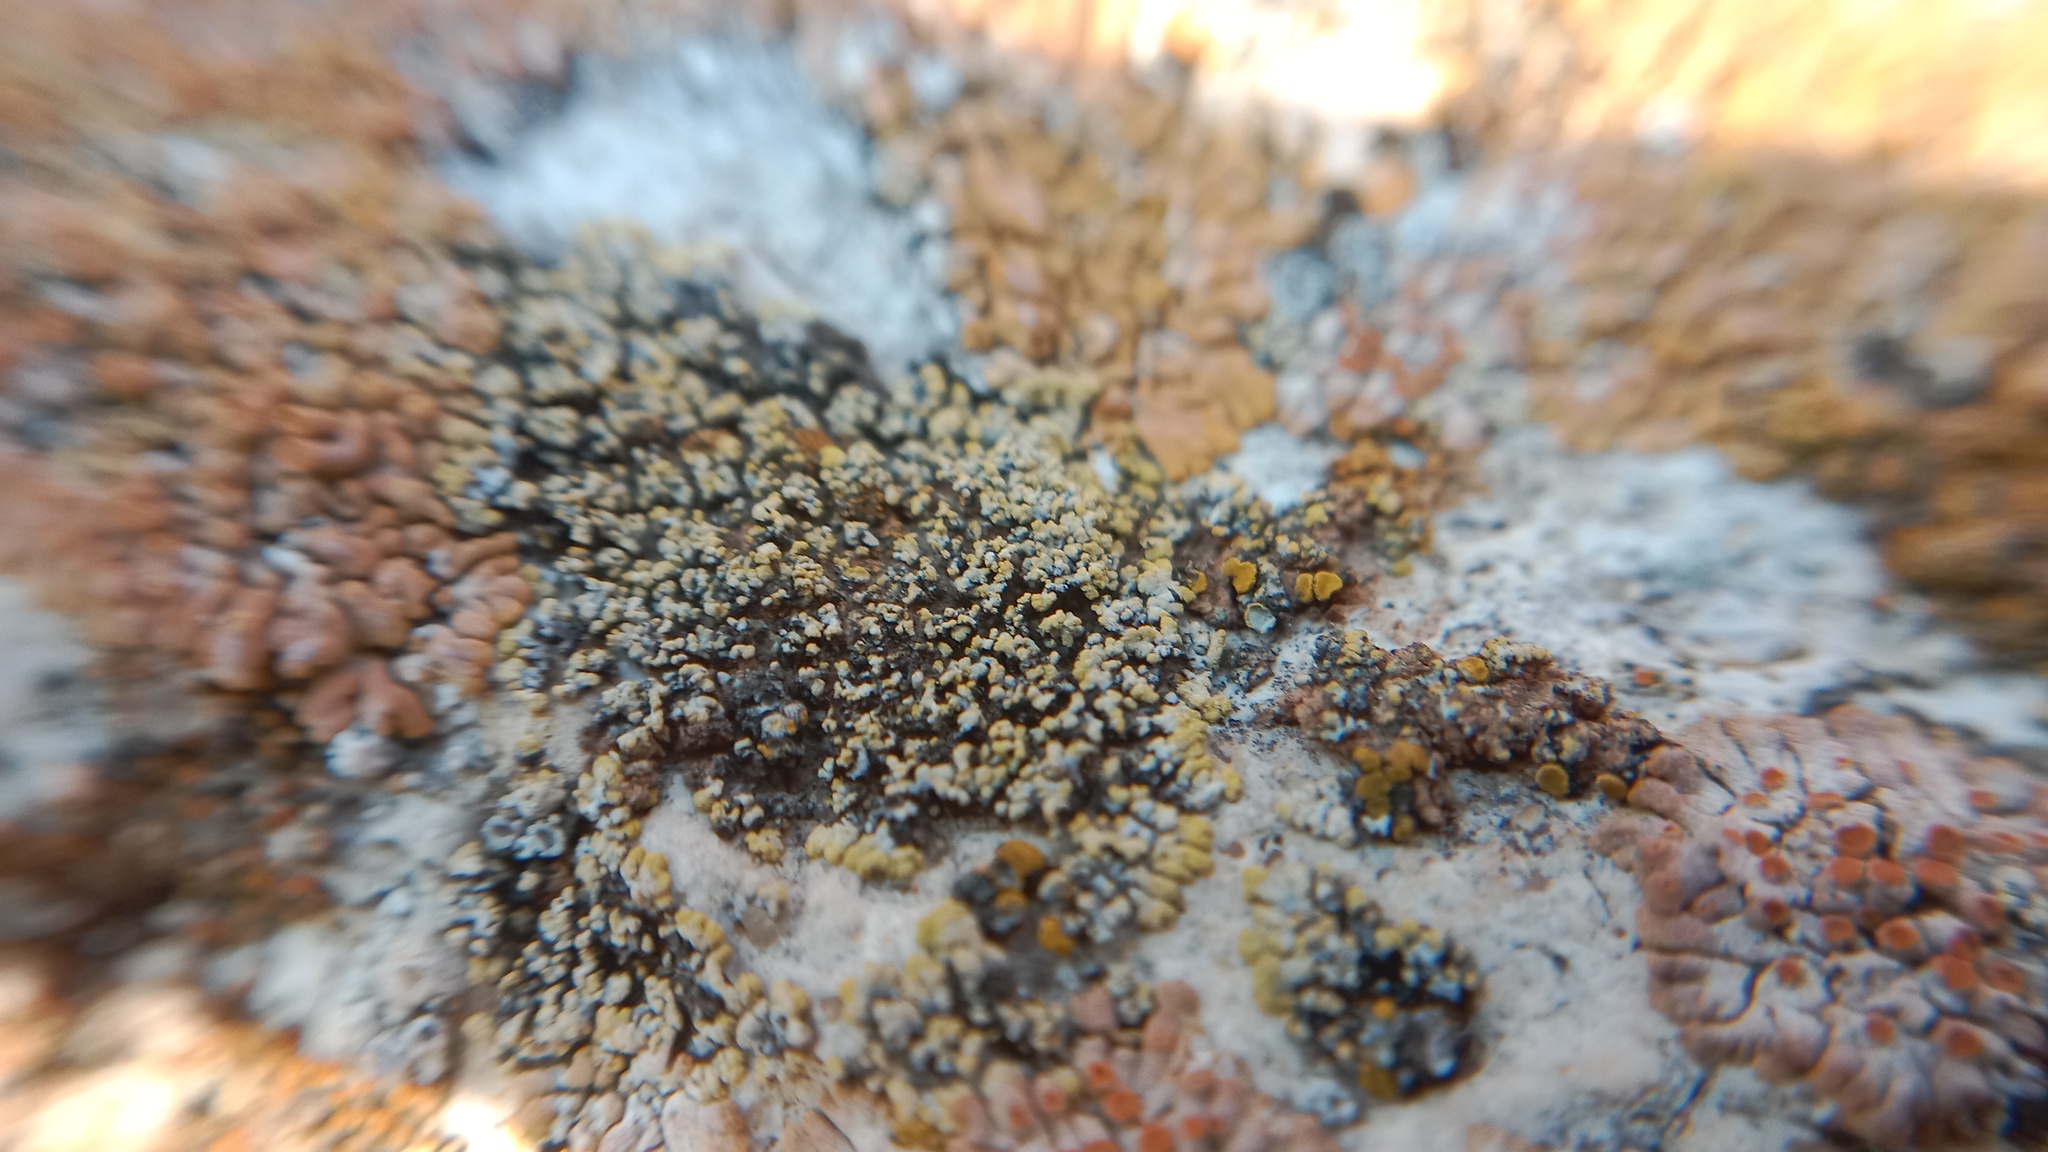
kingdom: Fungi
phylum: Ascomycota
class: Candelariomycetes
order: Candelariales
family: Candelariaceae
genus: Candelariella
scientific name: Candelariella medians
